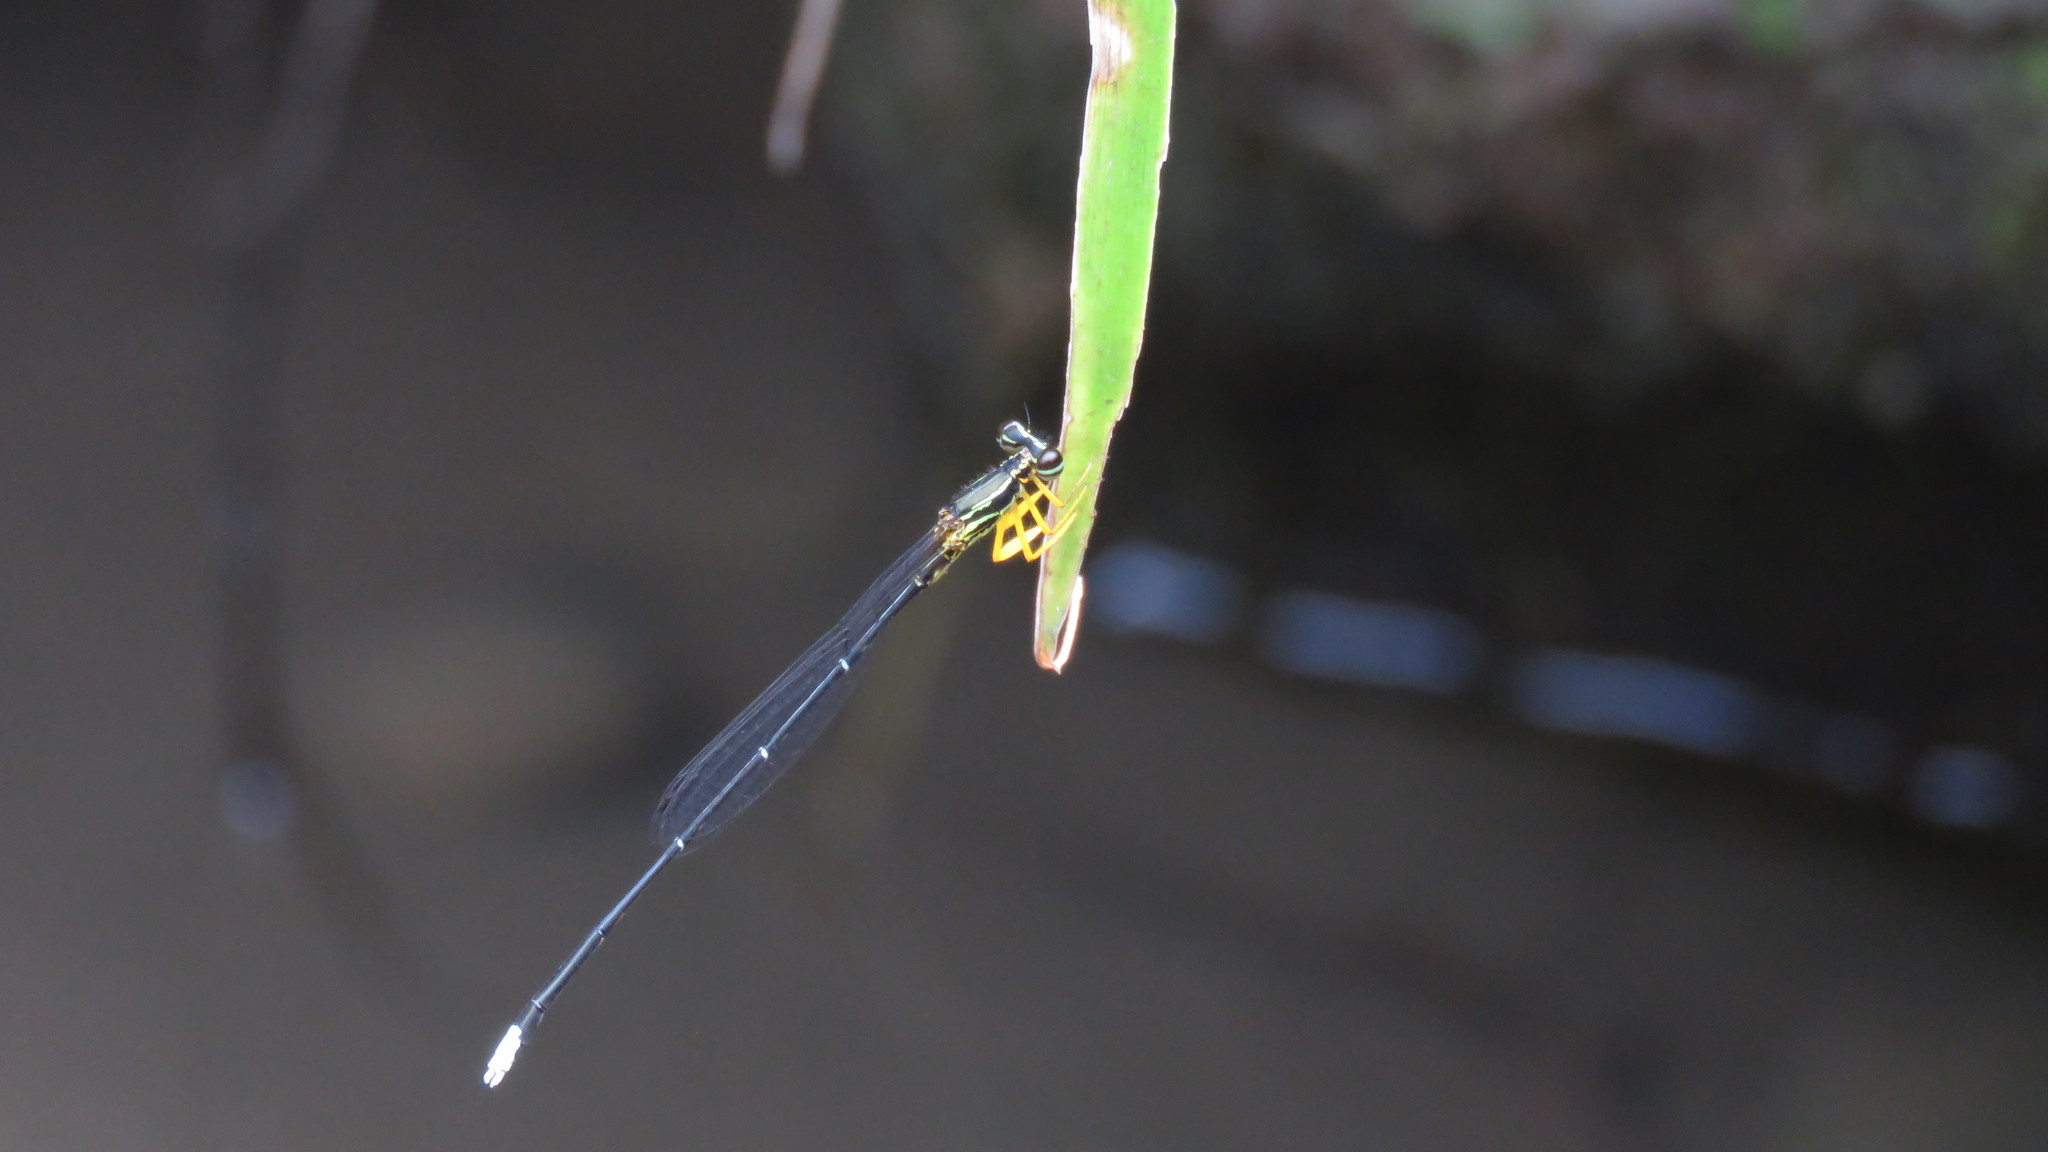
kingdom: Animalia
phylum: Arthropoda
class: Insecta
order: Odonata
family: Platycnemididae
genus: Copera
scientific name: Copera marginipes
